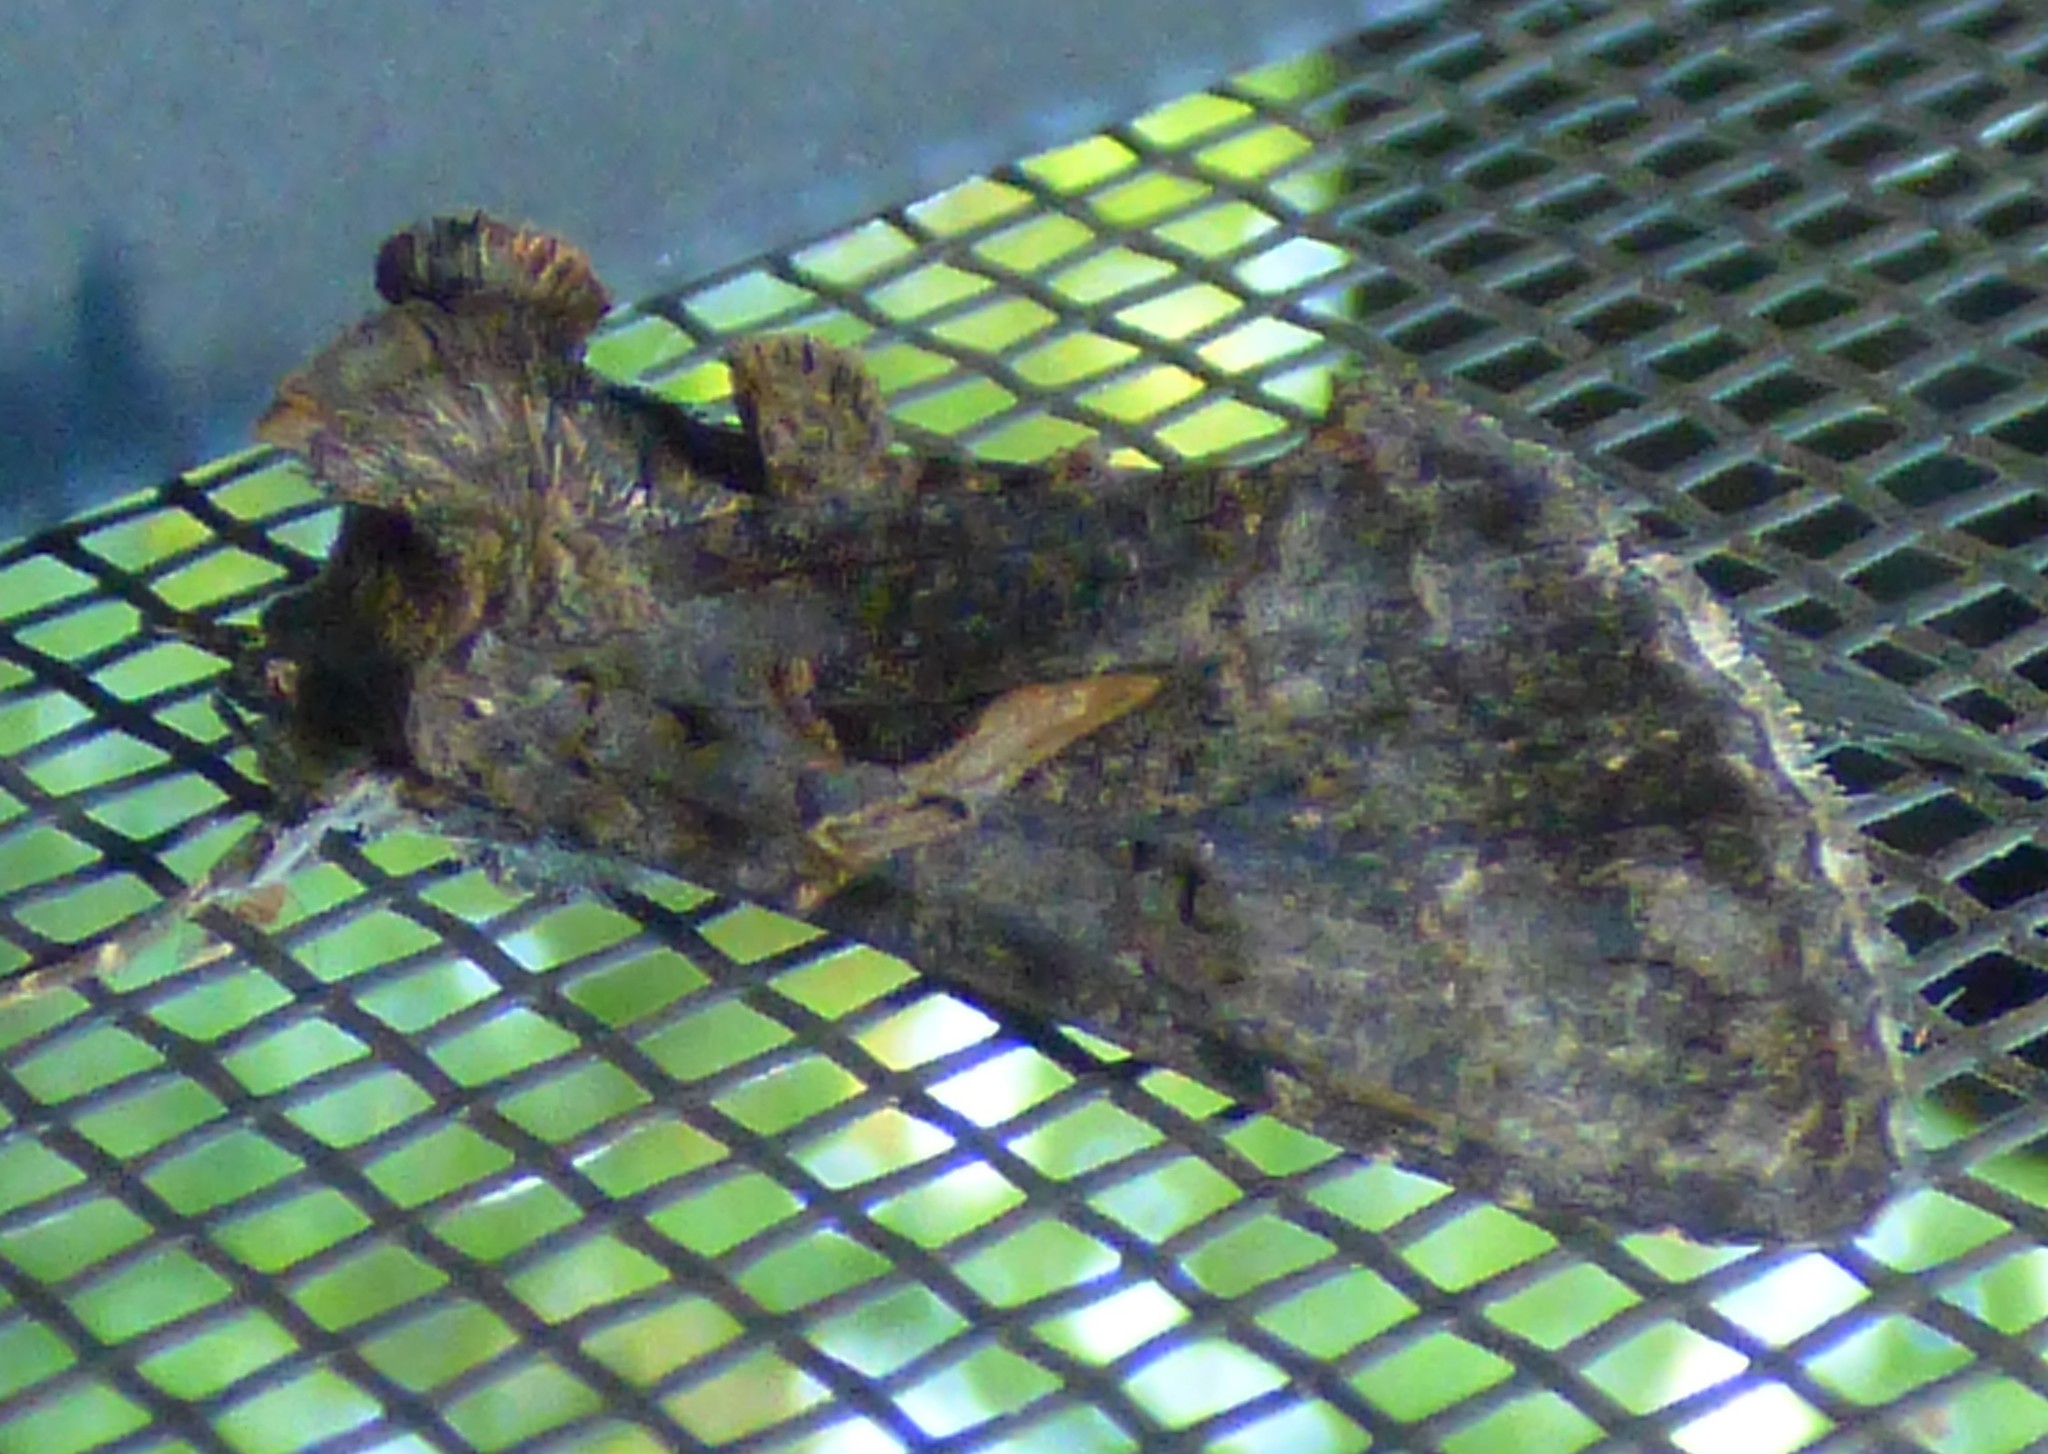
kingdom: Animalia
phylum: Arthropoda
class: Insecta
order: Lepidoptera
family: Noctuidae
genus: Ctenoplusia
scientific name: Ctenoplusia oxygramma
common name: Sharp-stigma looper moth
